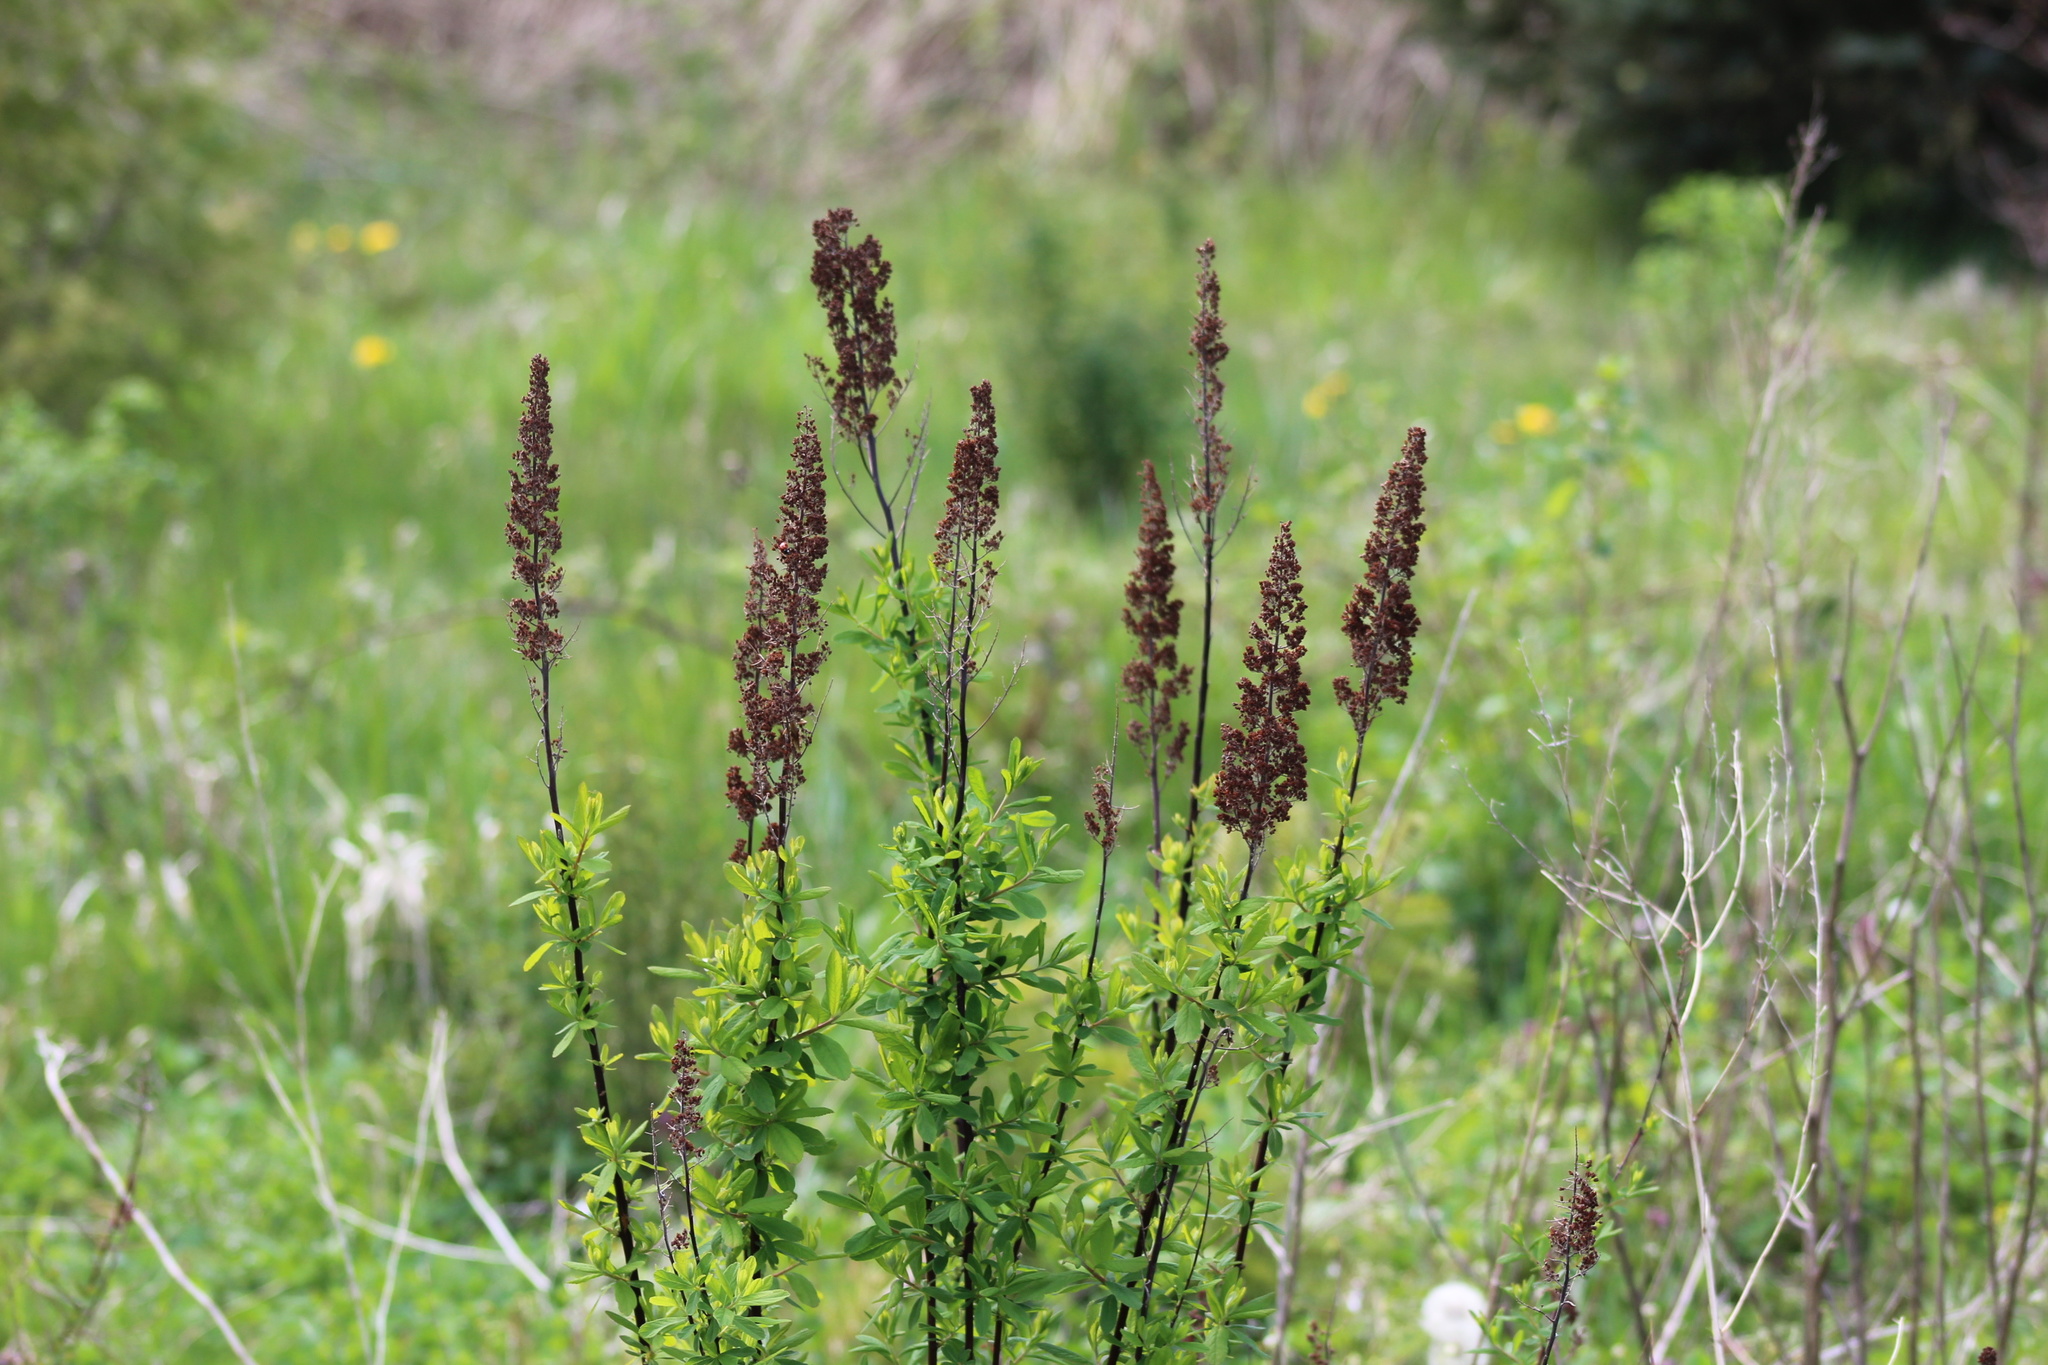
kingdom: Plantae
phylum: Tracheophyta
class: Magnoliopsida
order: Rosales
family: Rosaceae
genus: Spiraea
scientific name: Spiraea douglasii
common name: Steeplebush
